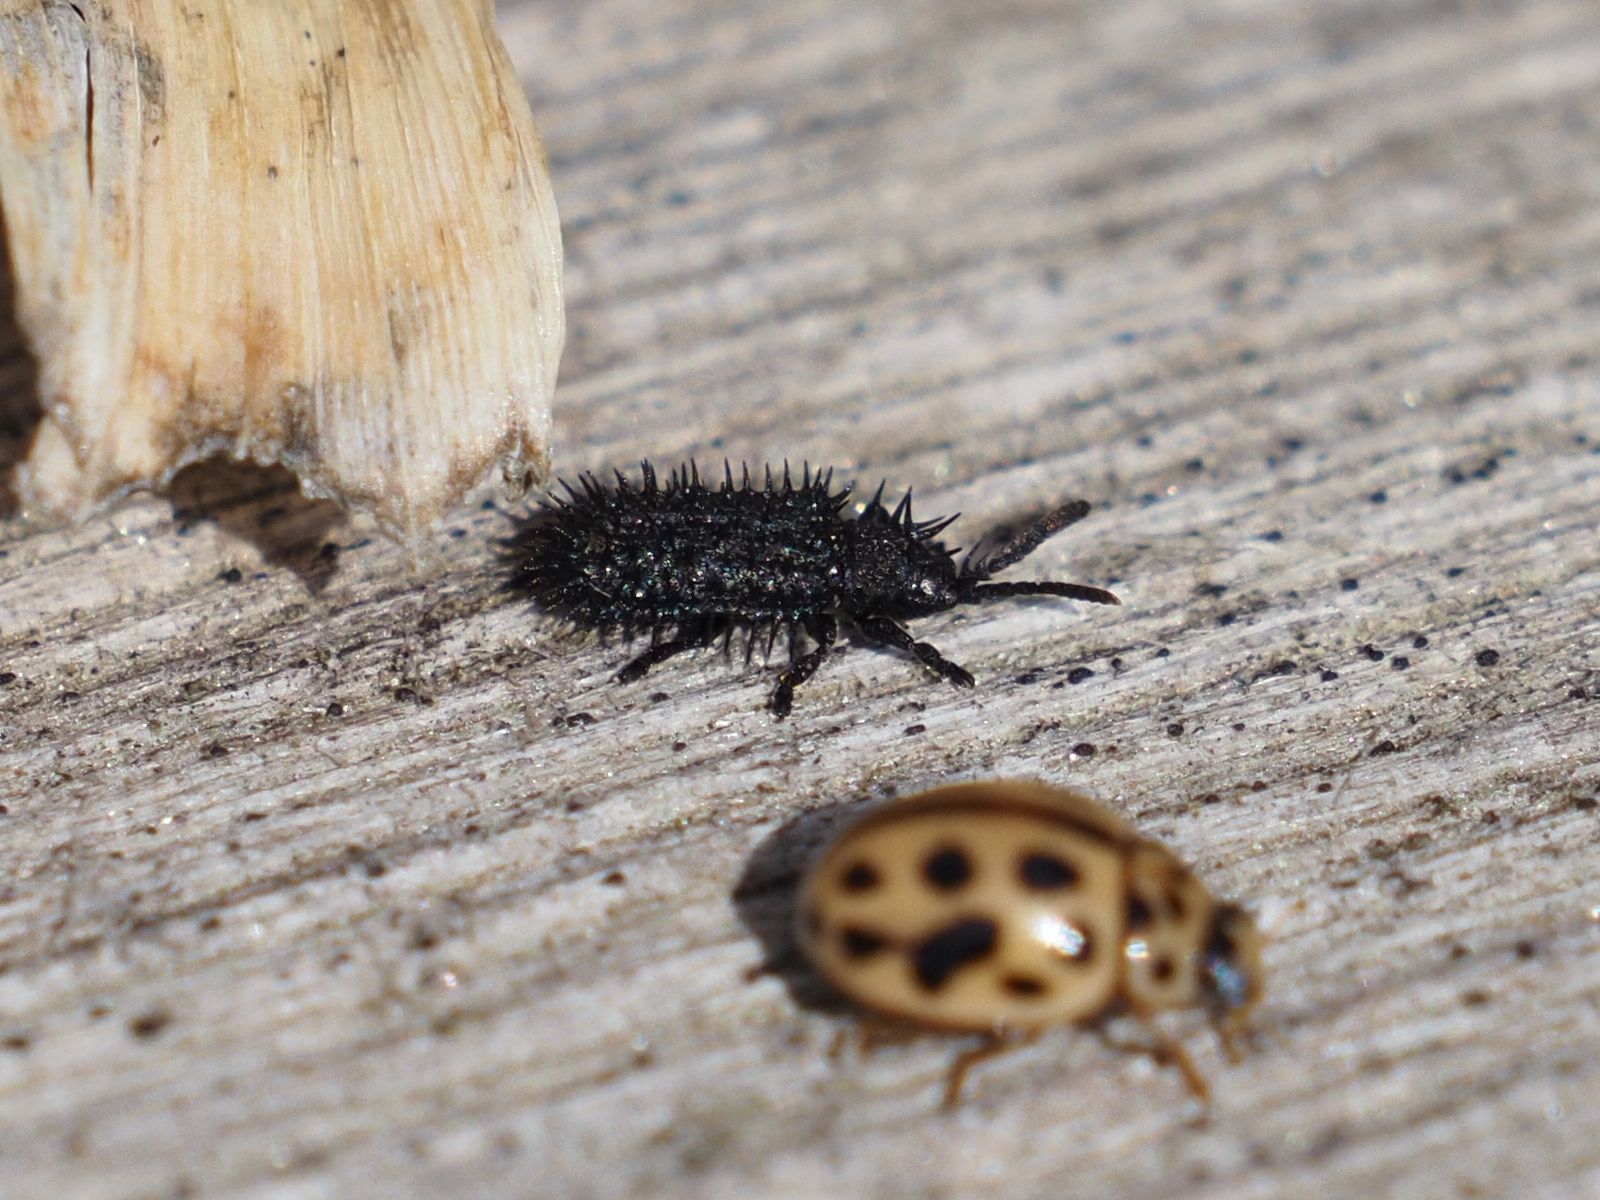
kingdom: Animalia
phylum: Arthropoda
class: Insecta
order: Coleoptera
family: Chrysomelidae
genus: Hispa
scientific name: Hispa atra
